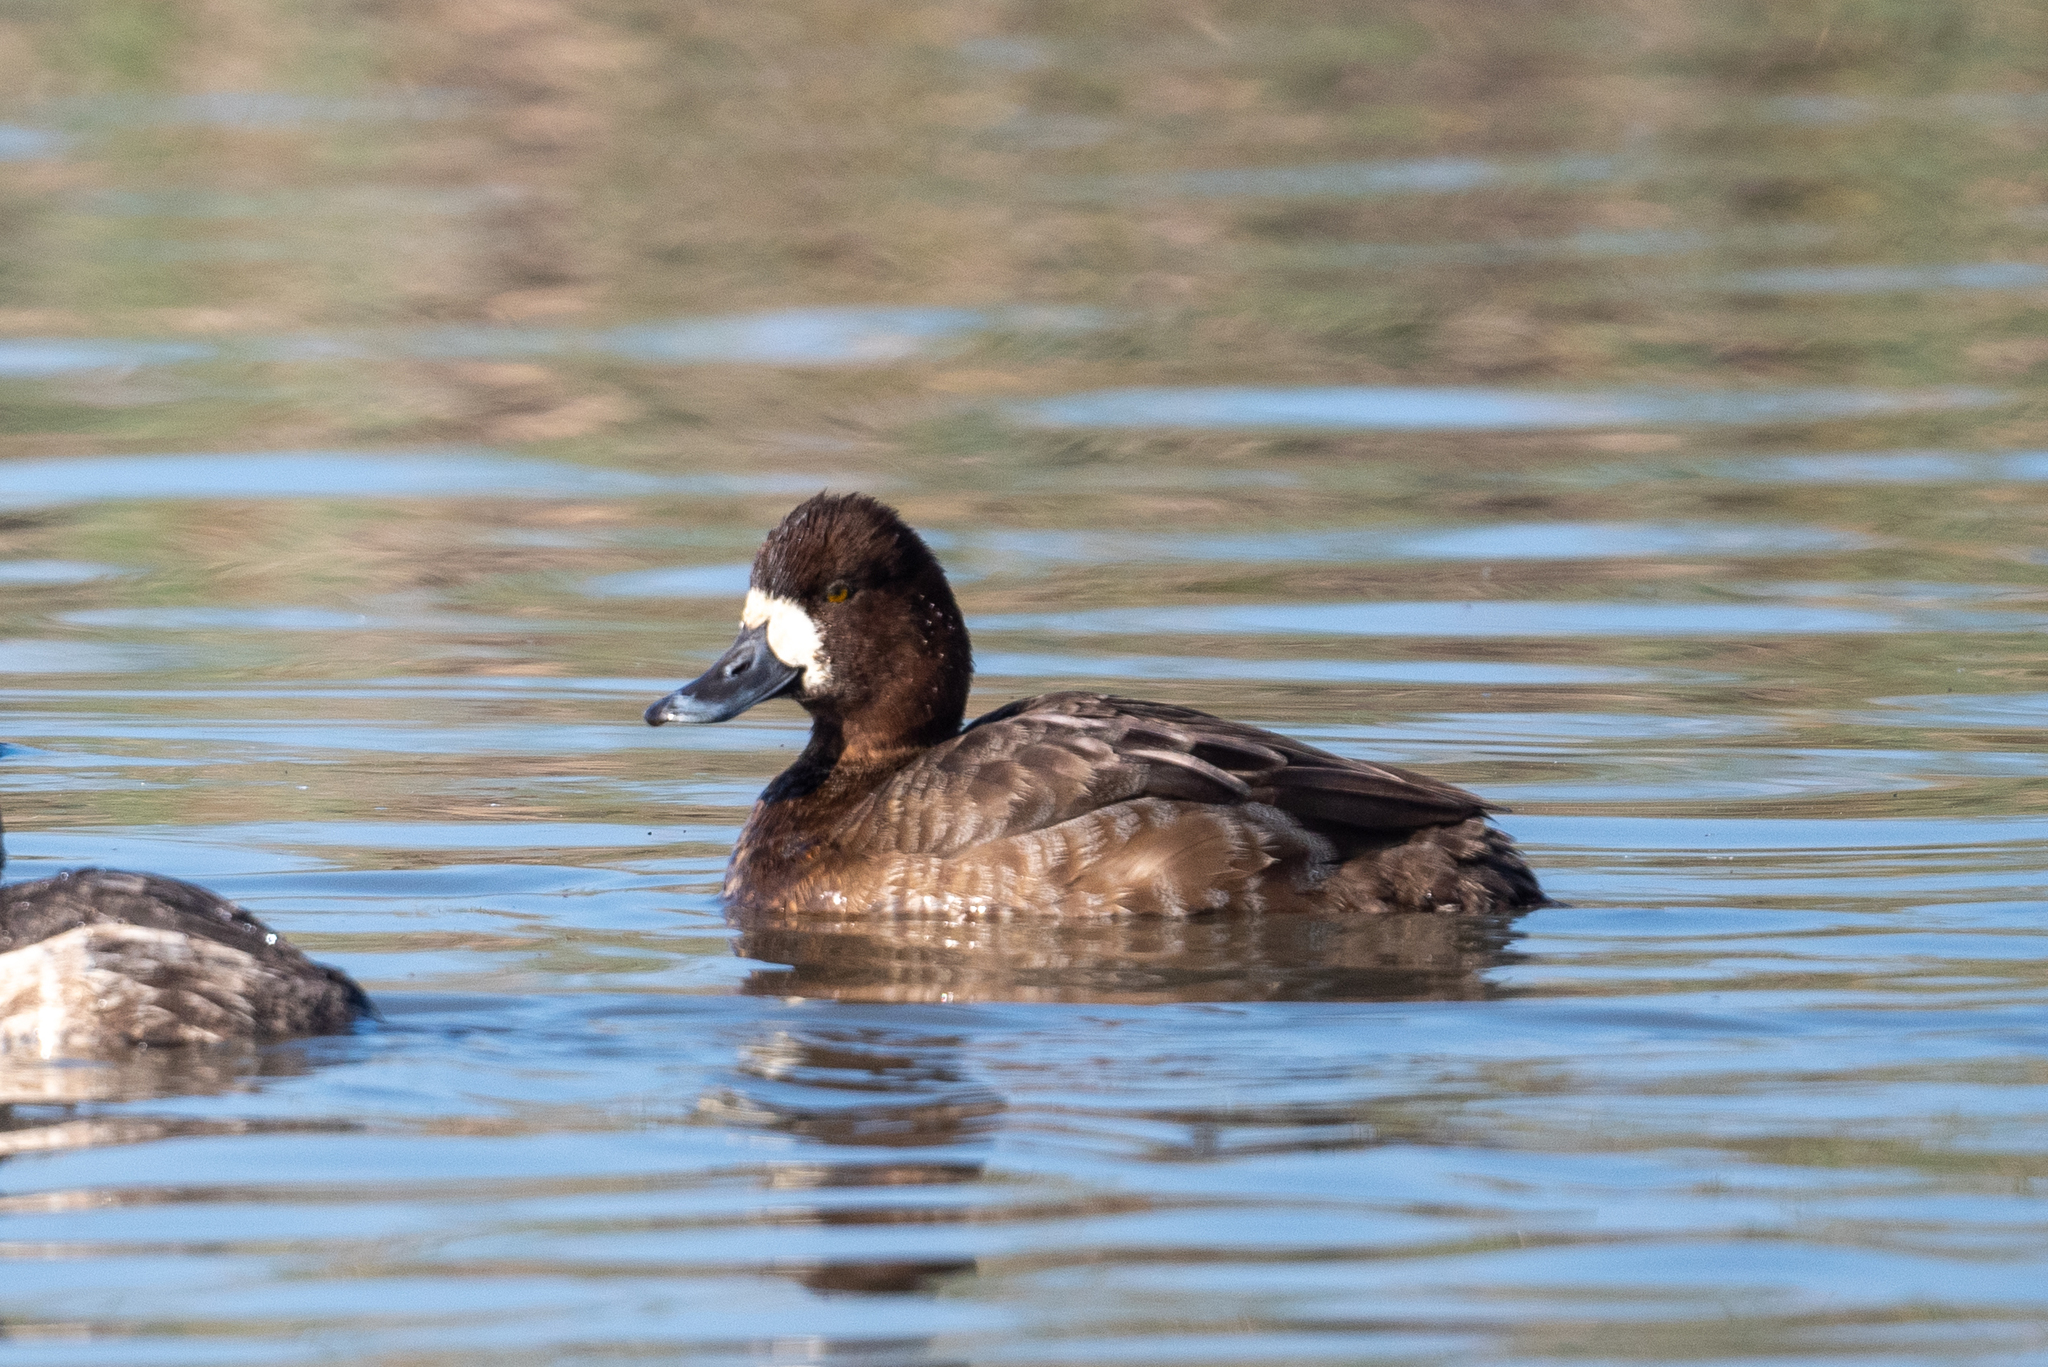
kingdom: Animalia
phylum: Chordata
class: Aves
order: Anseriformes
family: Anatidae
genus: Aythya
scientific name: Aythya affinis
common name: Lesser scaup
